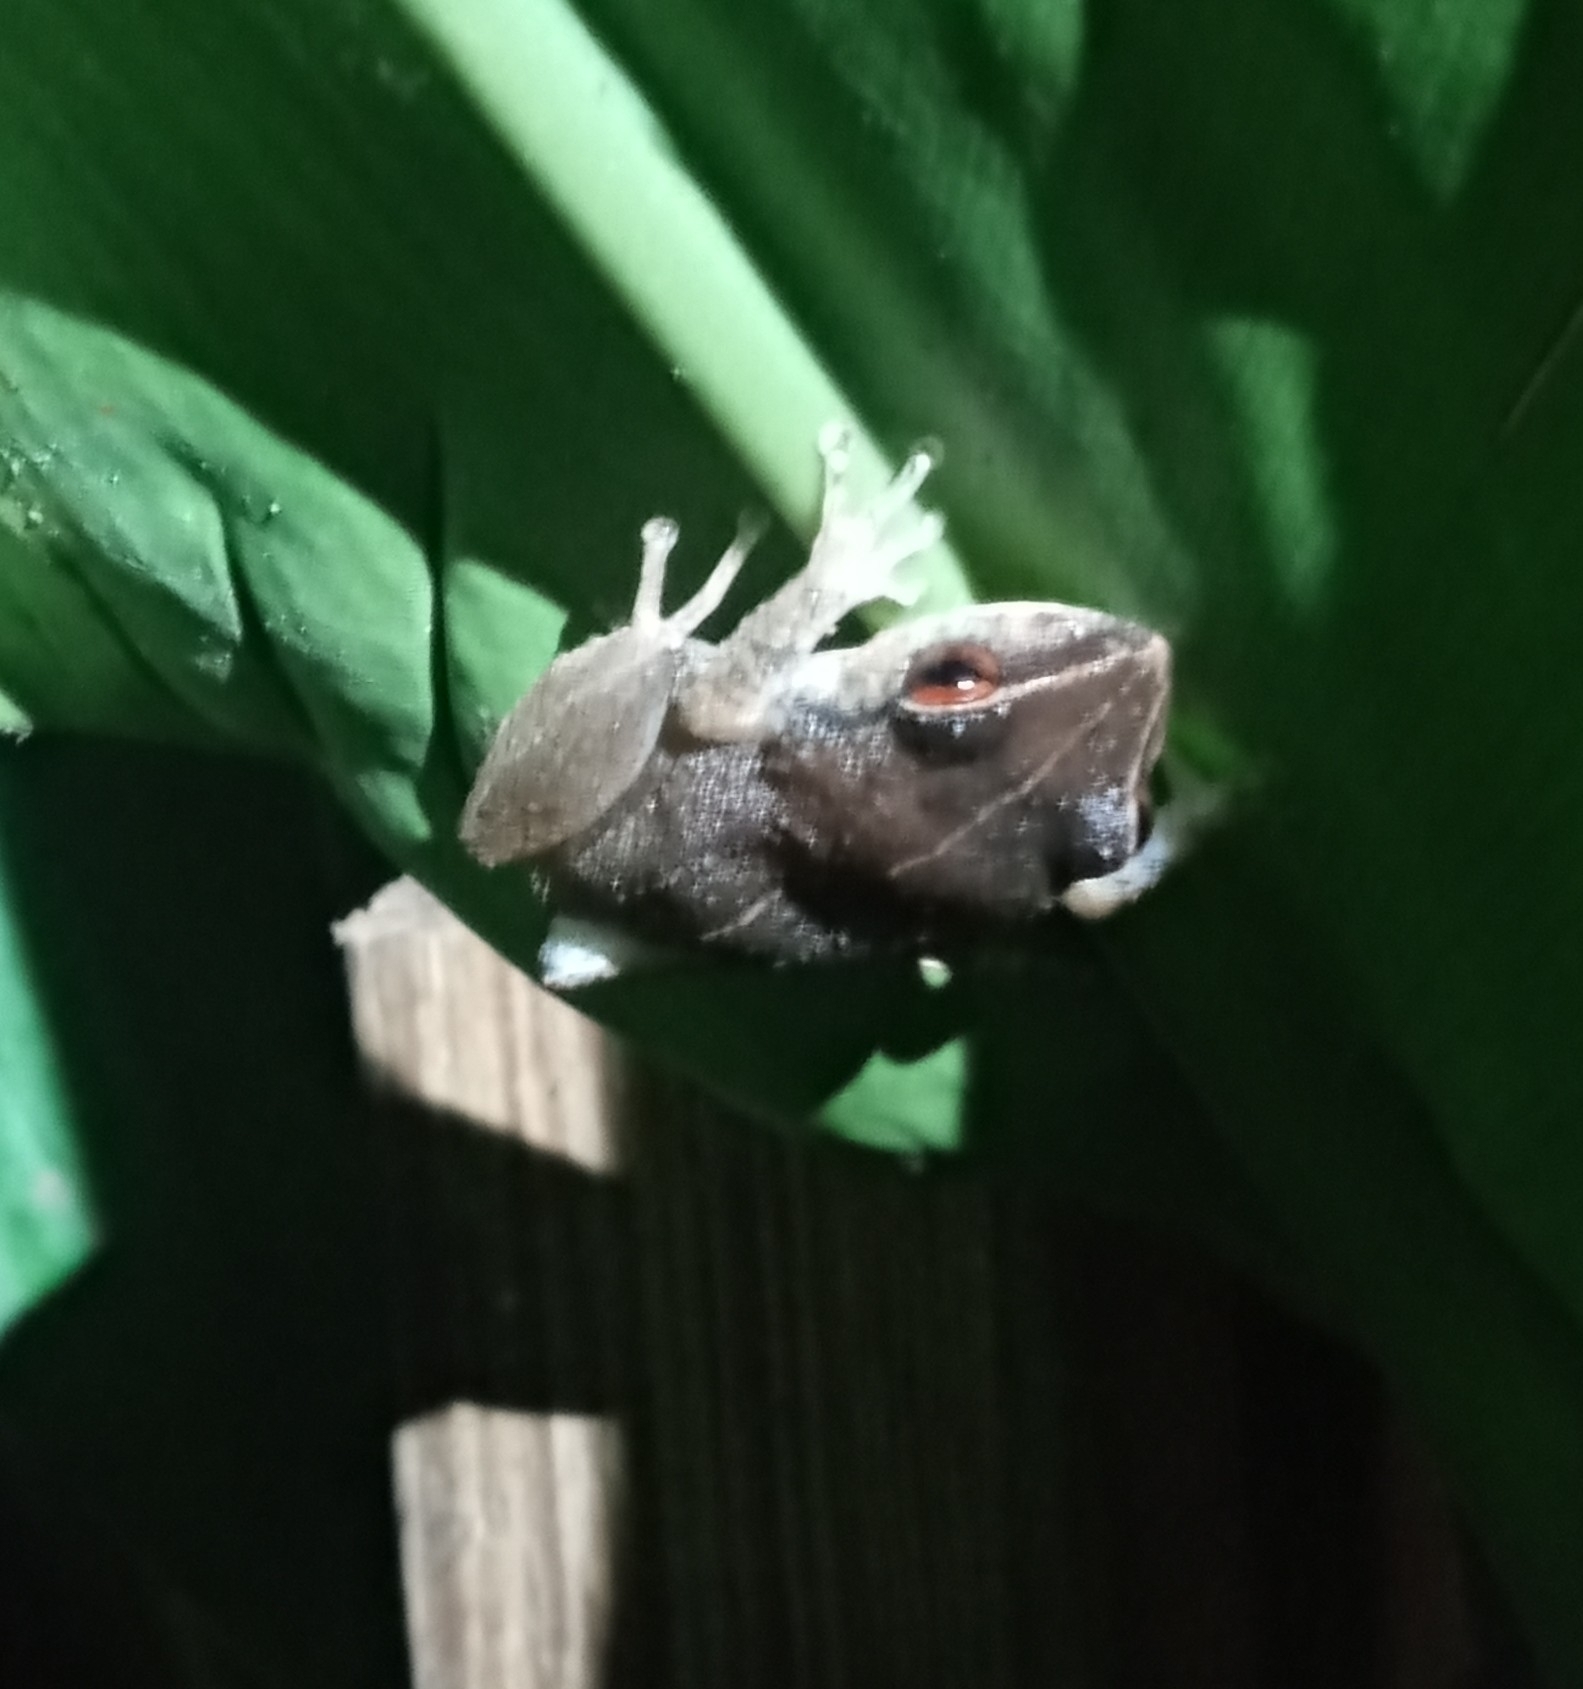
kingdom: Animalia
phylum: Chordata
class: Amphibia
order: Anura
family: Eleutherodactylidae
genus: Eleutherodactylus
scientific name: Eleutherodactylus antillensis
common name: Antillean coqui
